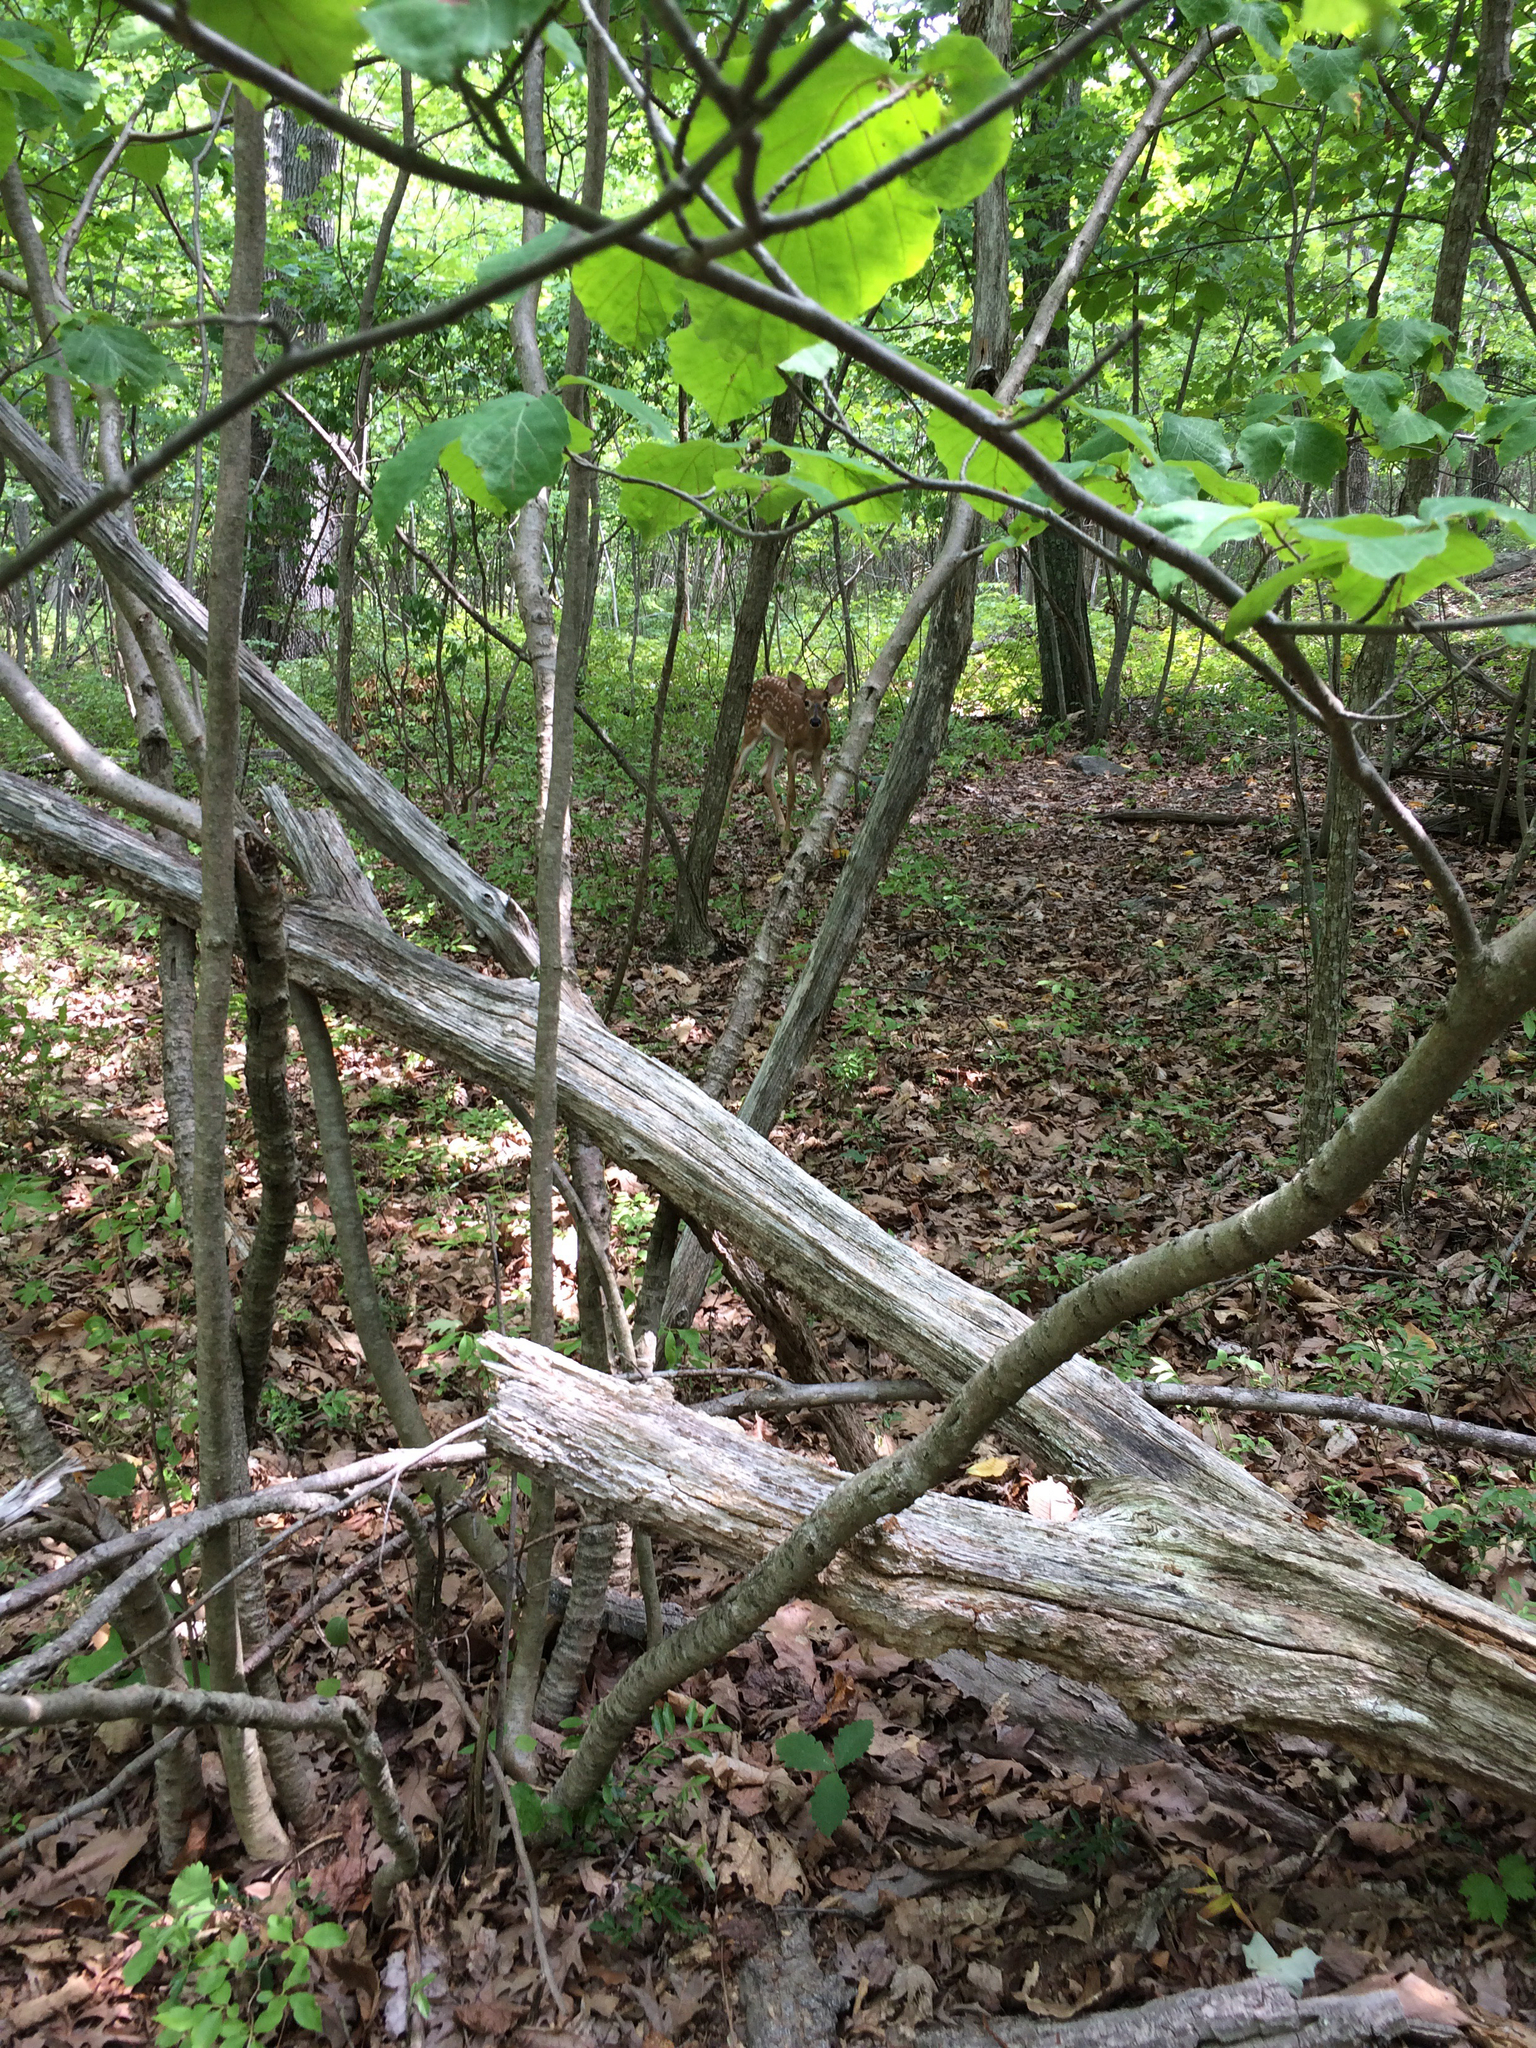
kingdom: Animalia
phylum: Chordata
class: Mammalia
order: Artiodactyla
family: Cervidae
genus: Odocoileus
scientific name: Odocoileus virginianus
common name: White-tailed deer
